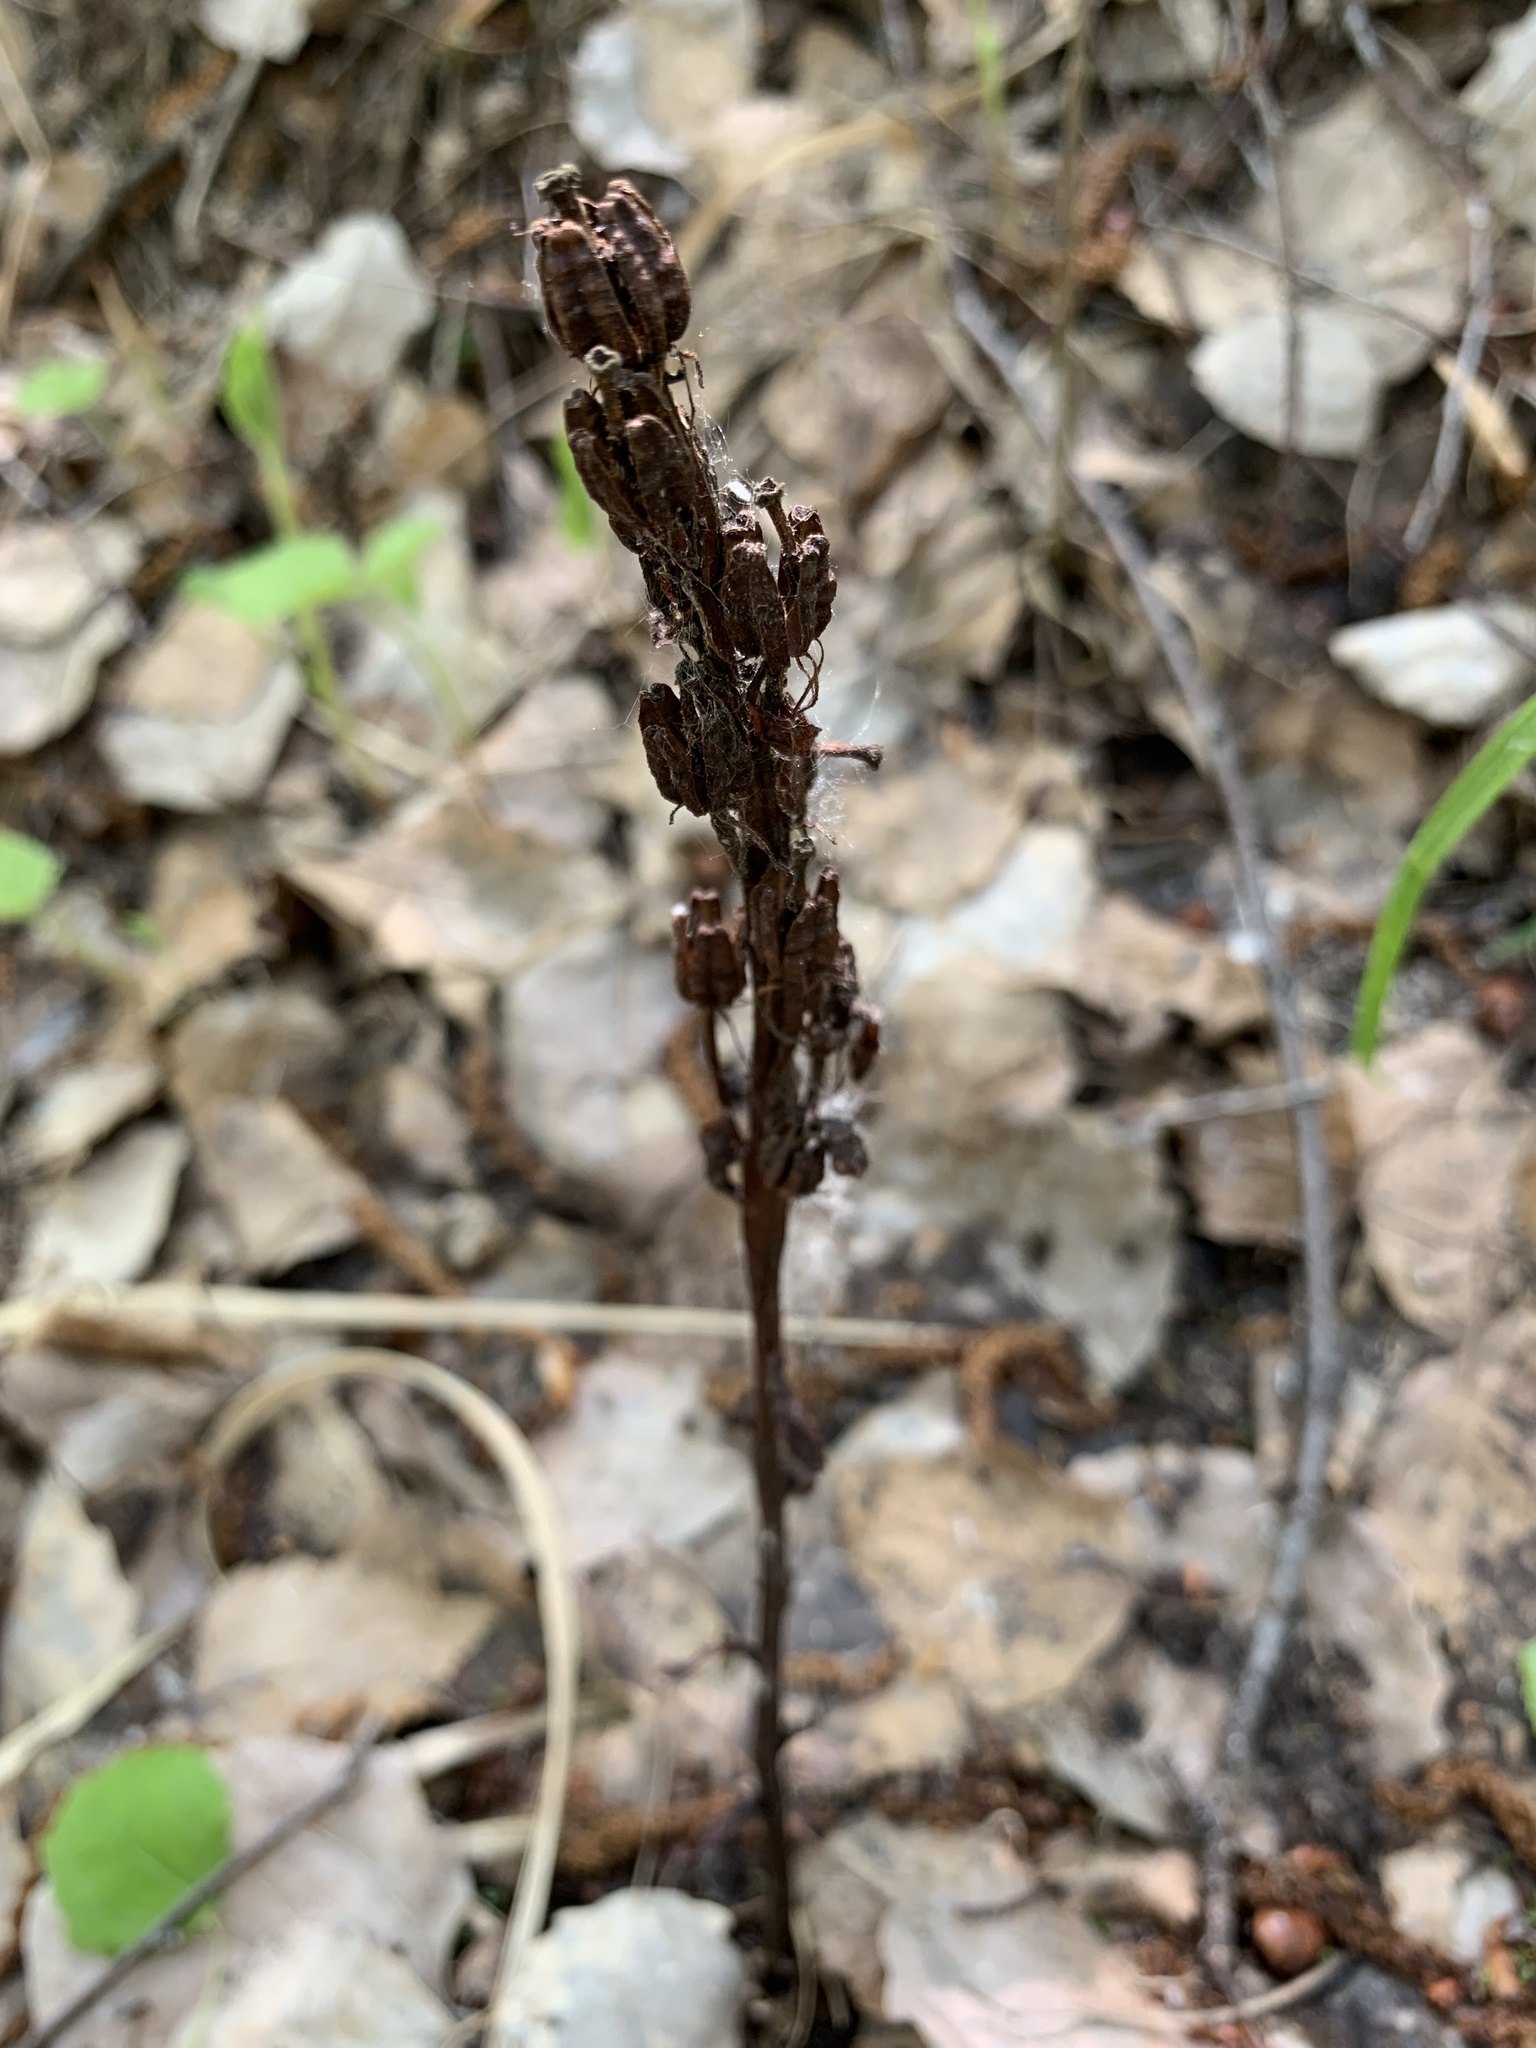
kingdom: Plantae
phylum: Tracheophyta
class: Magnoliopsida
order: Ericales
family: Ericaceae
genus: Hypopitys
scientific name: Hypopitys monotropa
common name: Yellow bird's-nest
